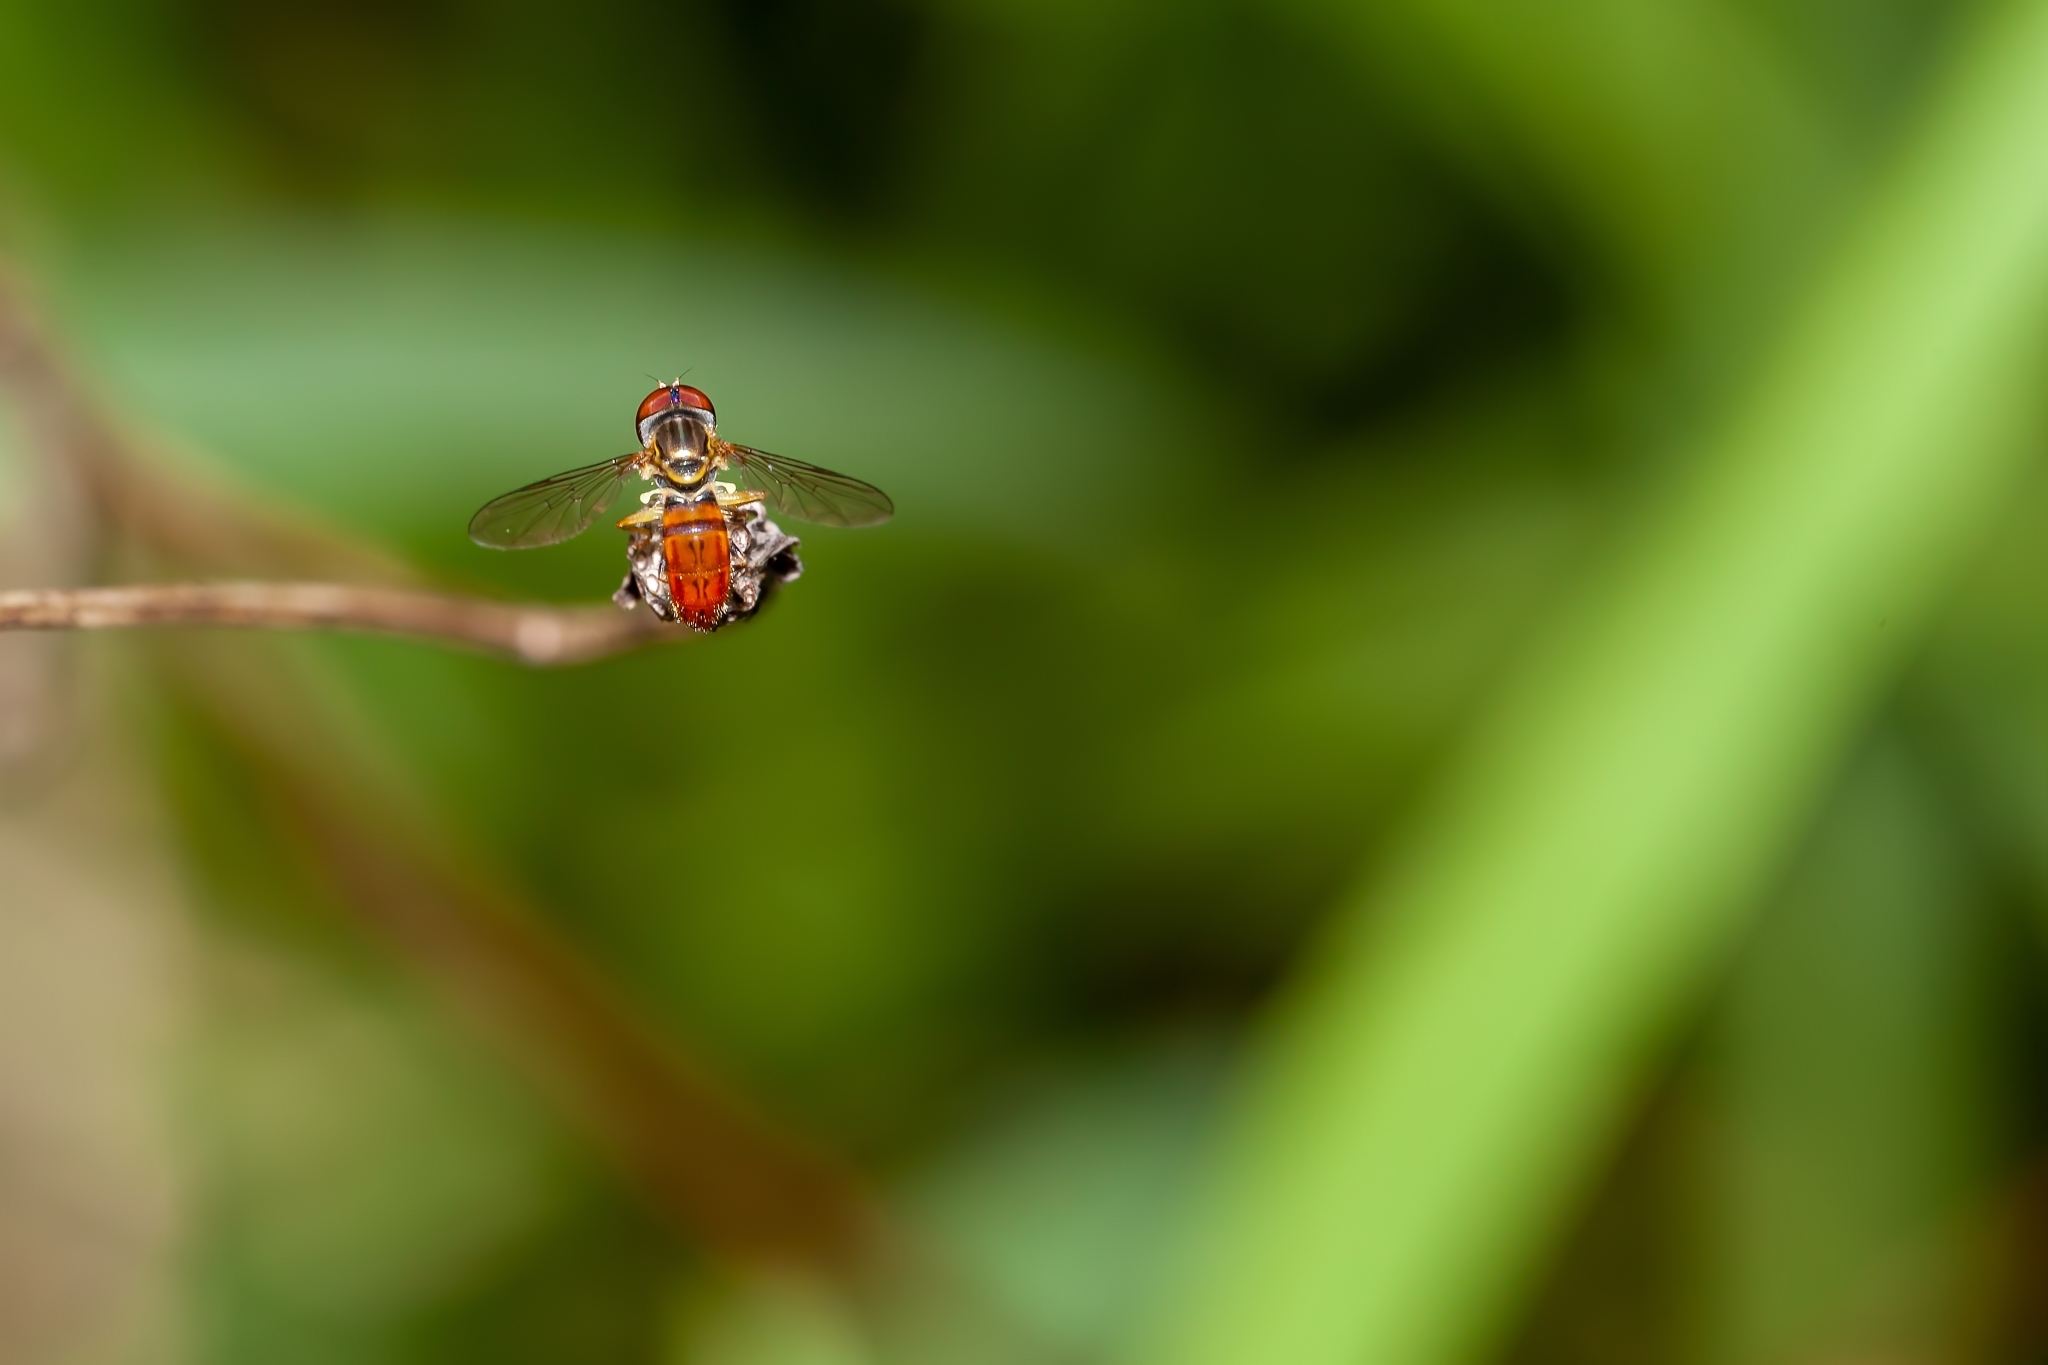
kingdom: Animalia
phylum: Arthropoda
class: Insecta
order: Diptera
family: Syrphidae
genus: Toxomerus
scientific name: Toxomerus boscii
